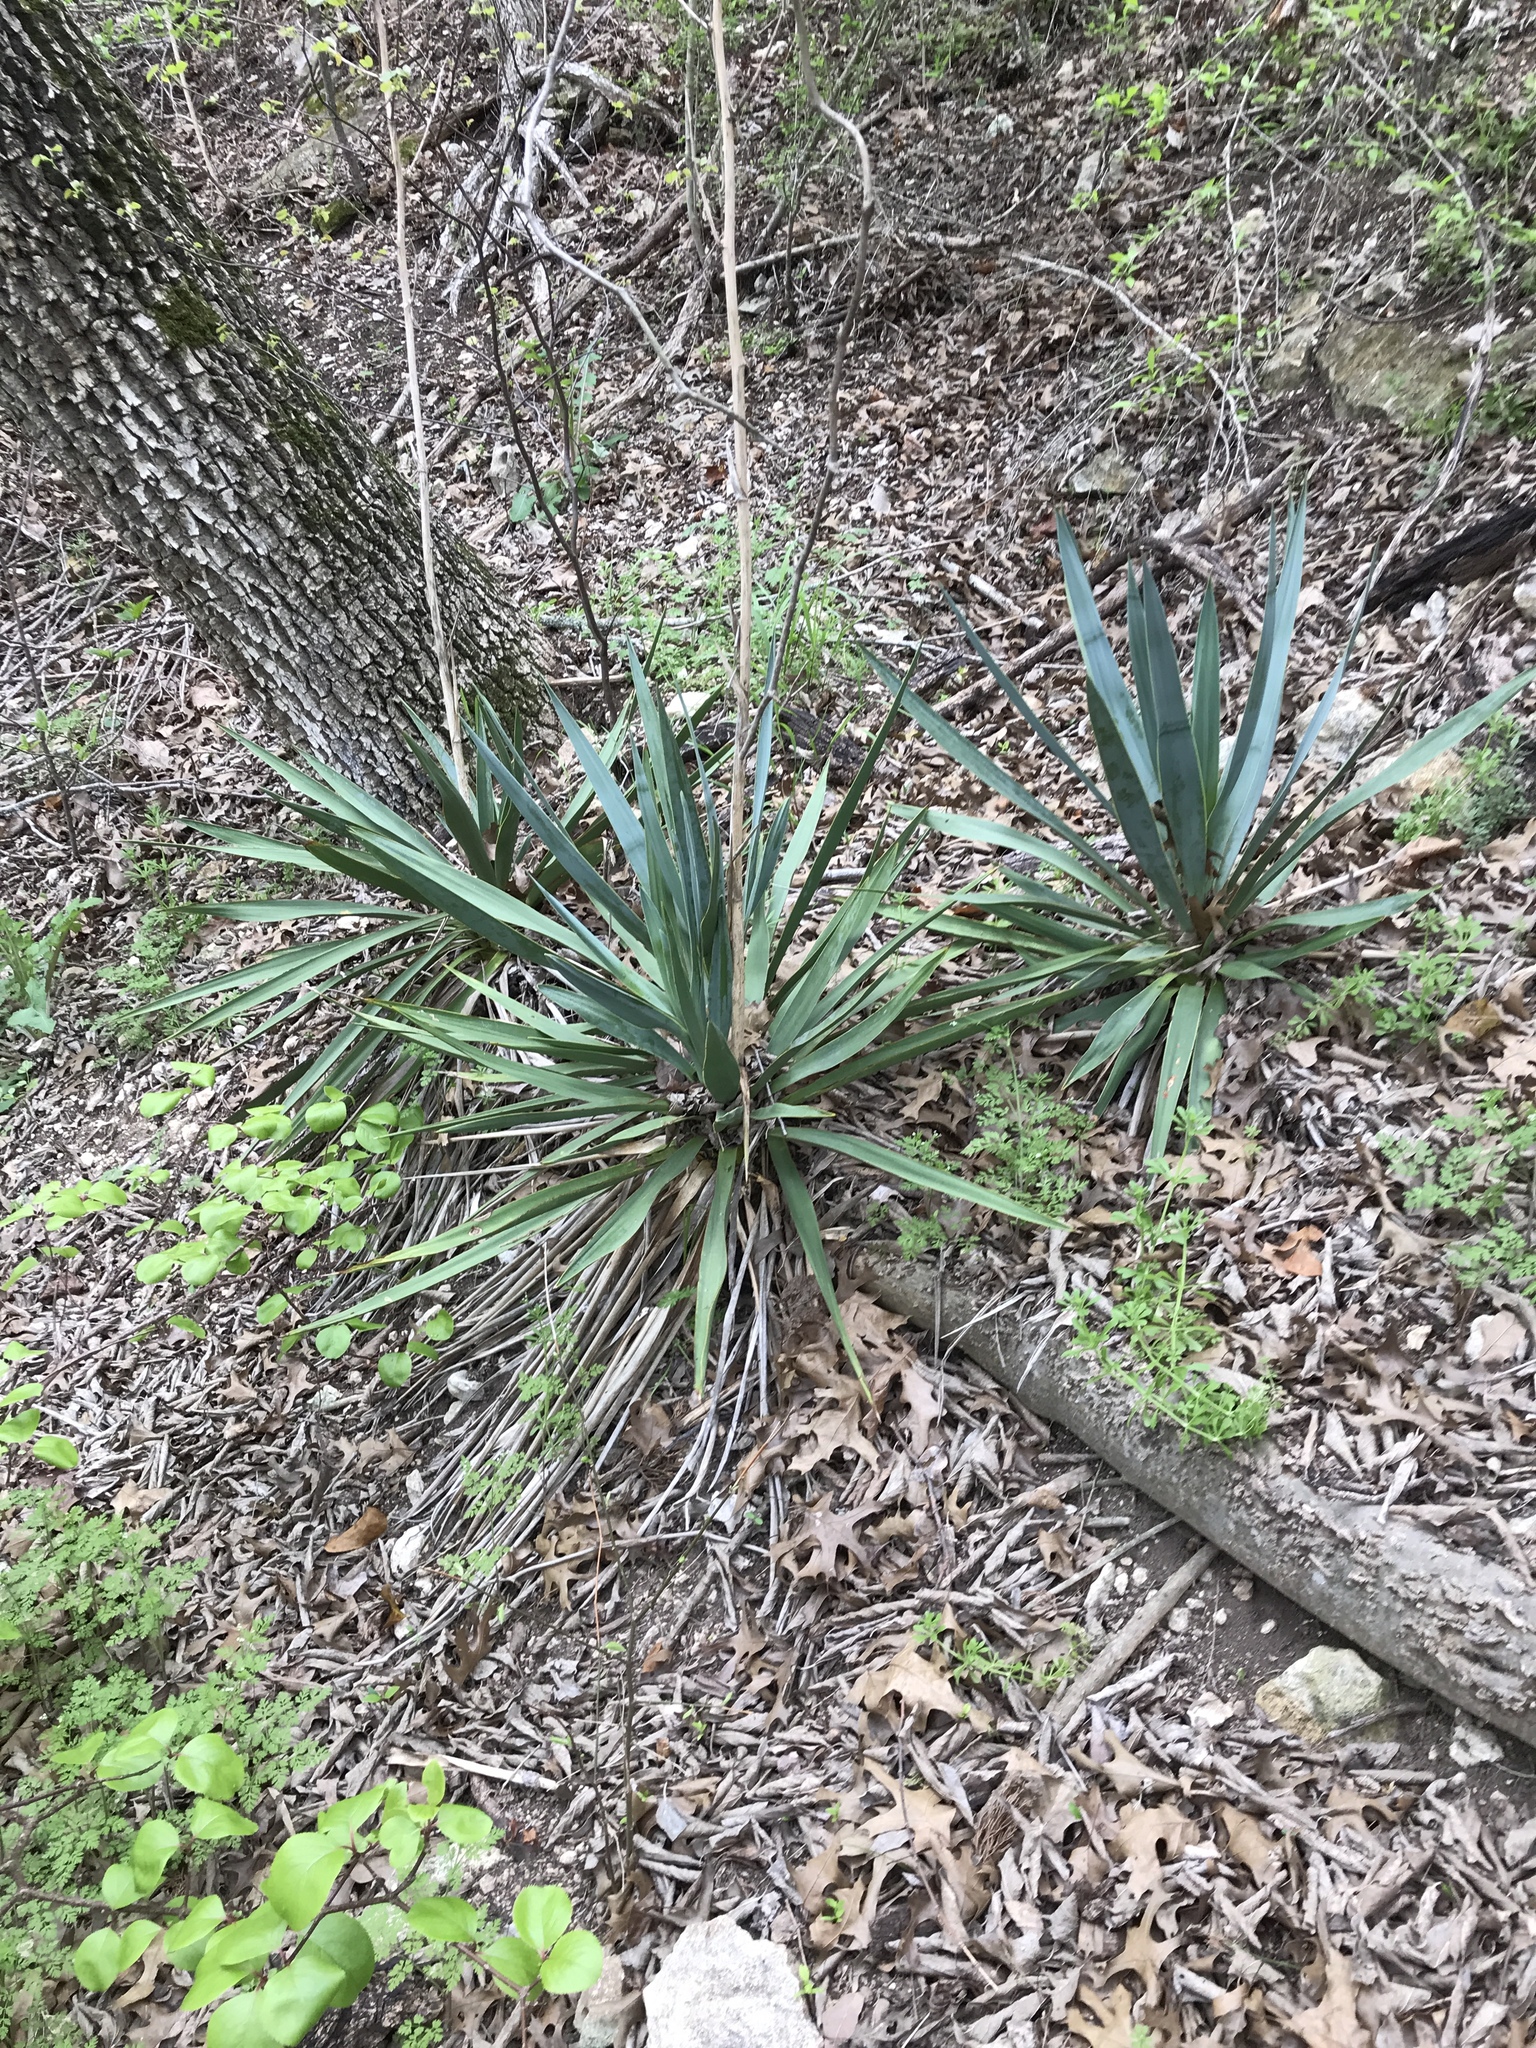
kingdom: Plantae
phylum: Tracheophyta
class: Liliopsida
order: Asparagales
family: Asparagaceae
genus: Yucca
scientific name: Yucca pallida
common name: Pale leaf yucca
